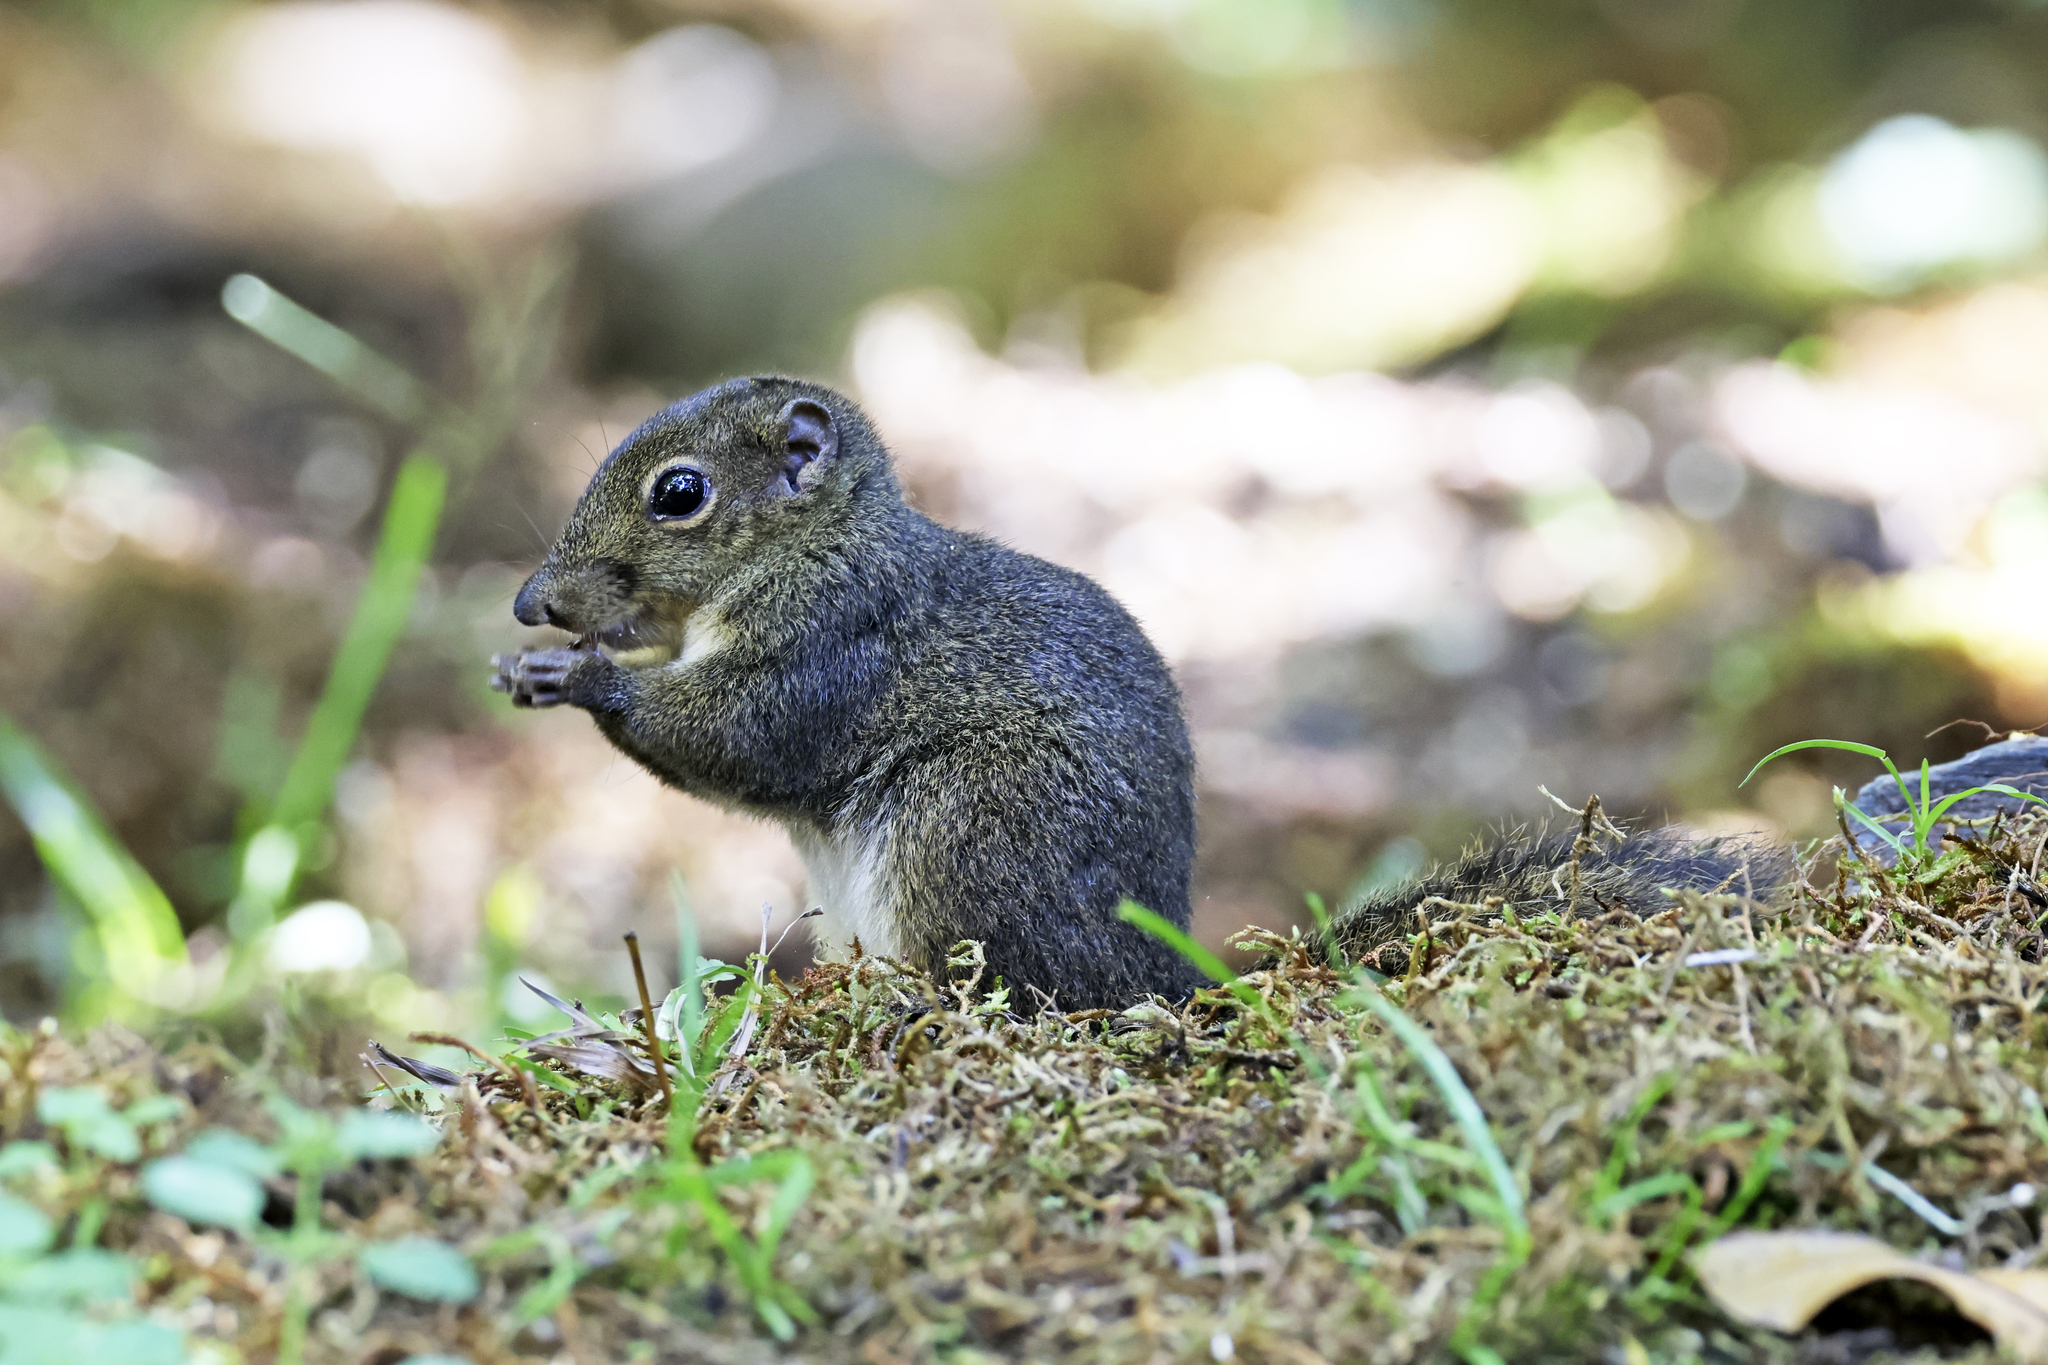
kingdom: Animalia
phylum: Chordata
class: Mammalia
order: Rodentia
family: Sciuridae
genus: Sundasciurus
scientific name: Sundasciurus everetti
